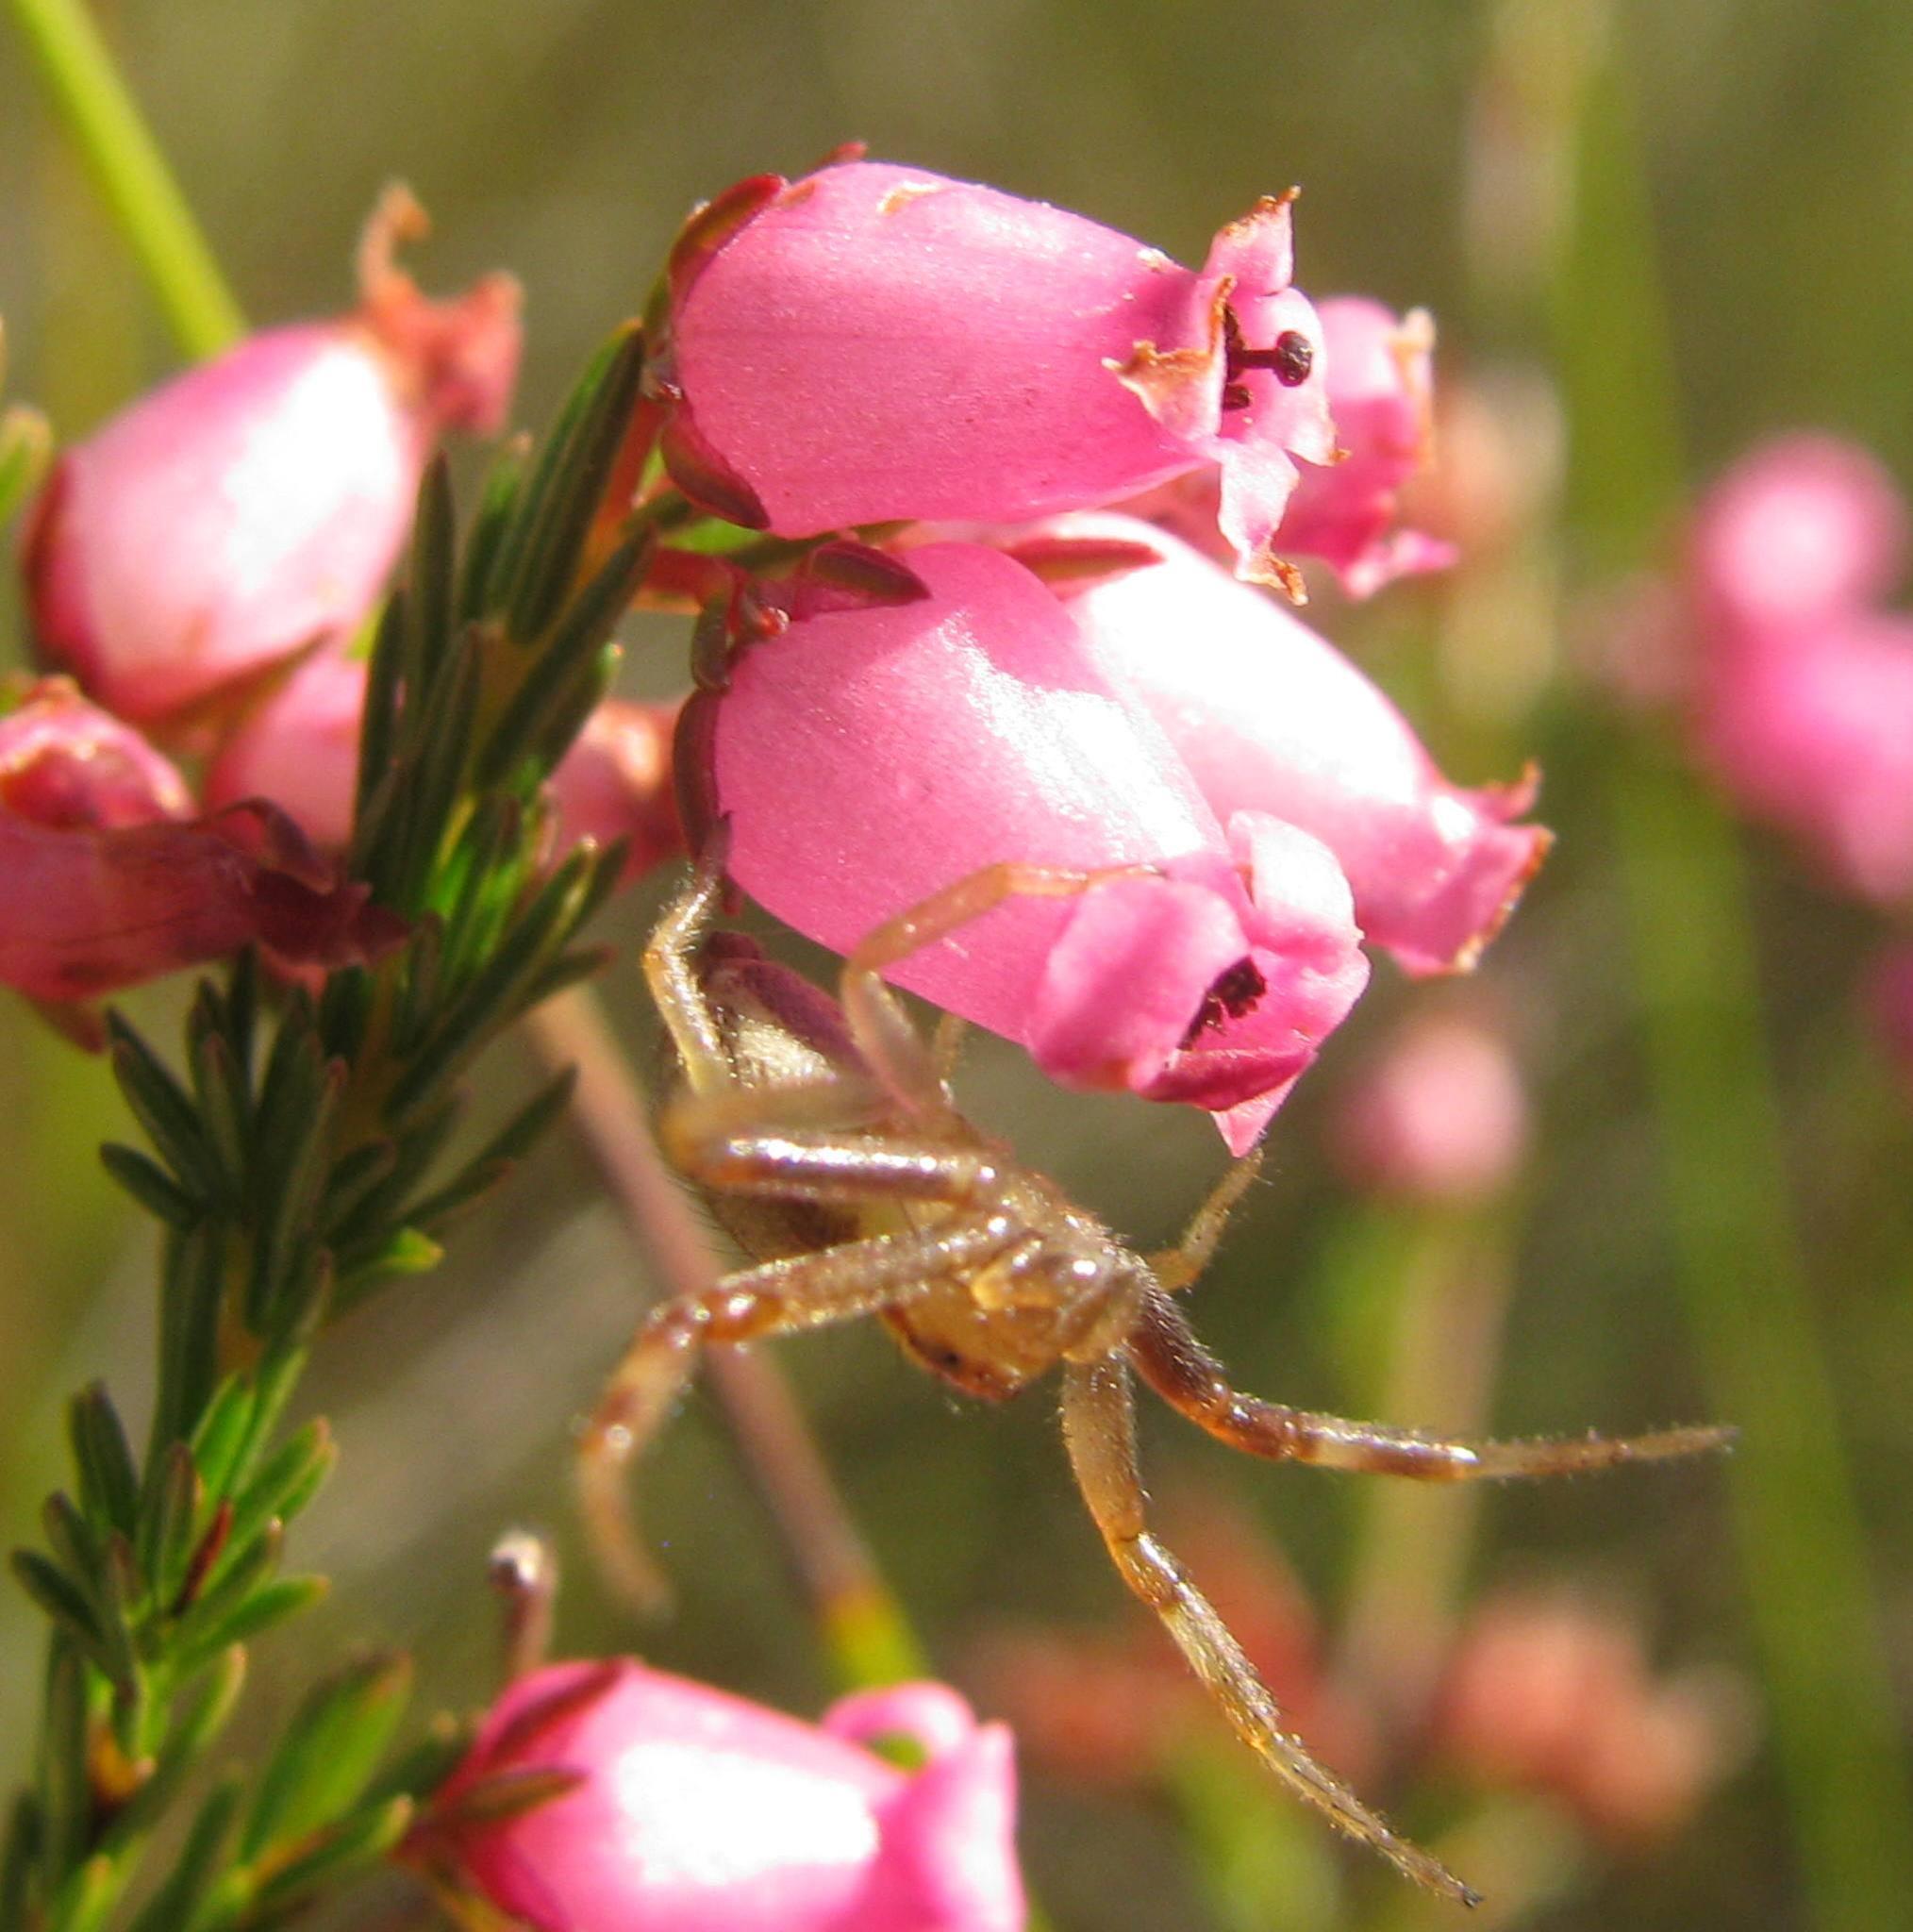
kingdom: Plantae
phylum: Tracheophyta
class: Magnoliopsida
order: Ericales
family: Ericaceae
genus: Erica
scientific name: Erica daphniflora
